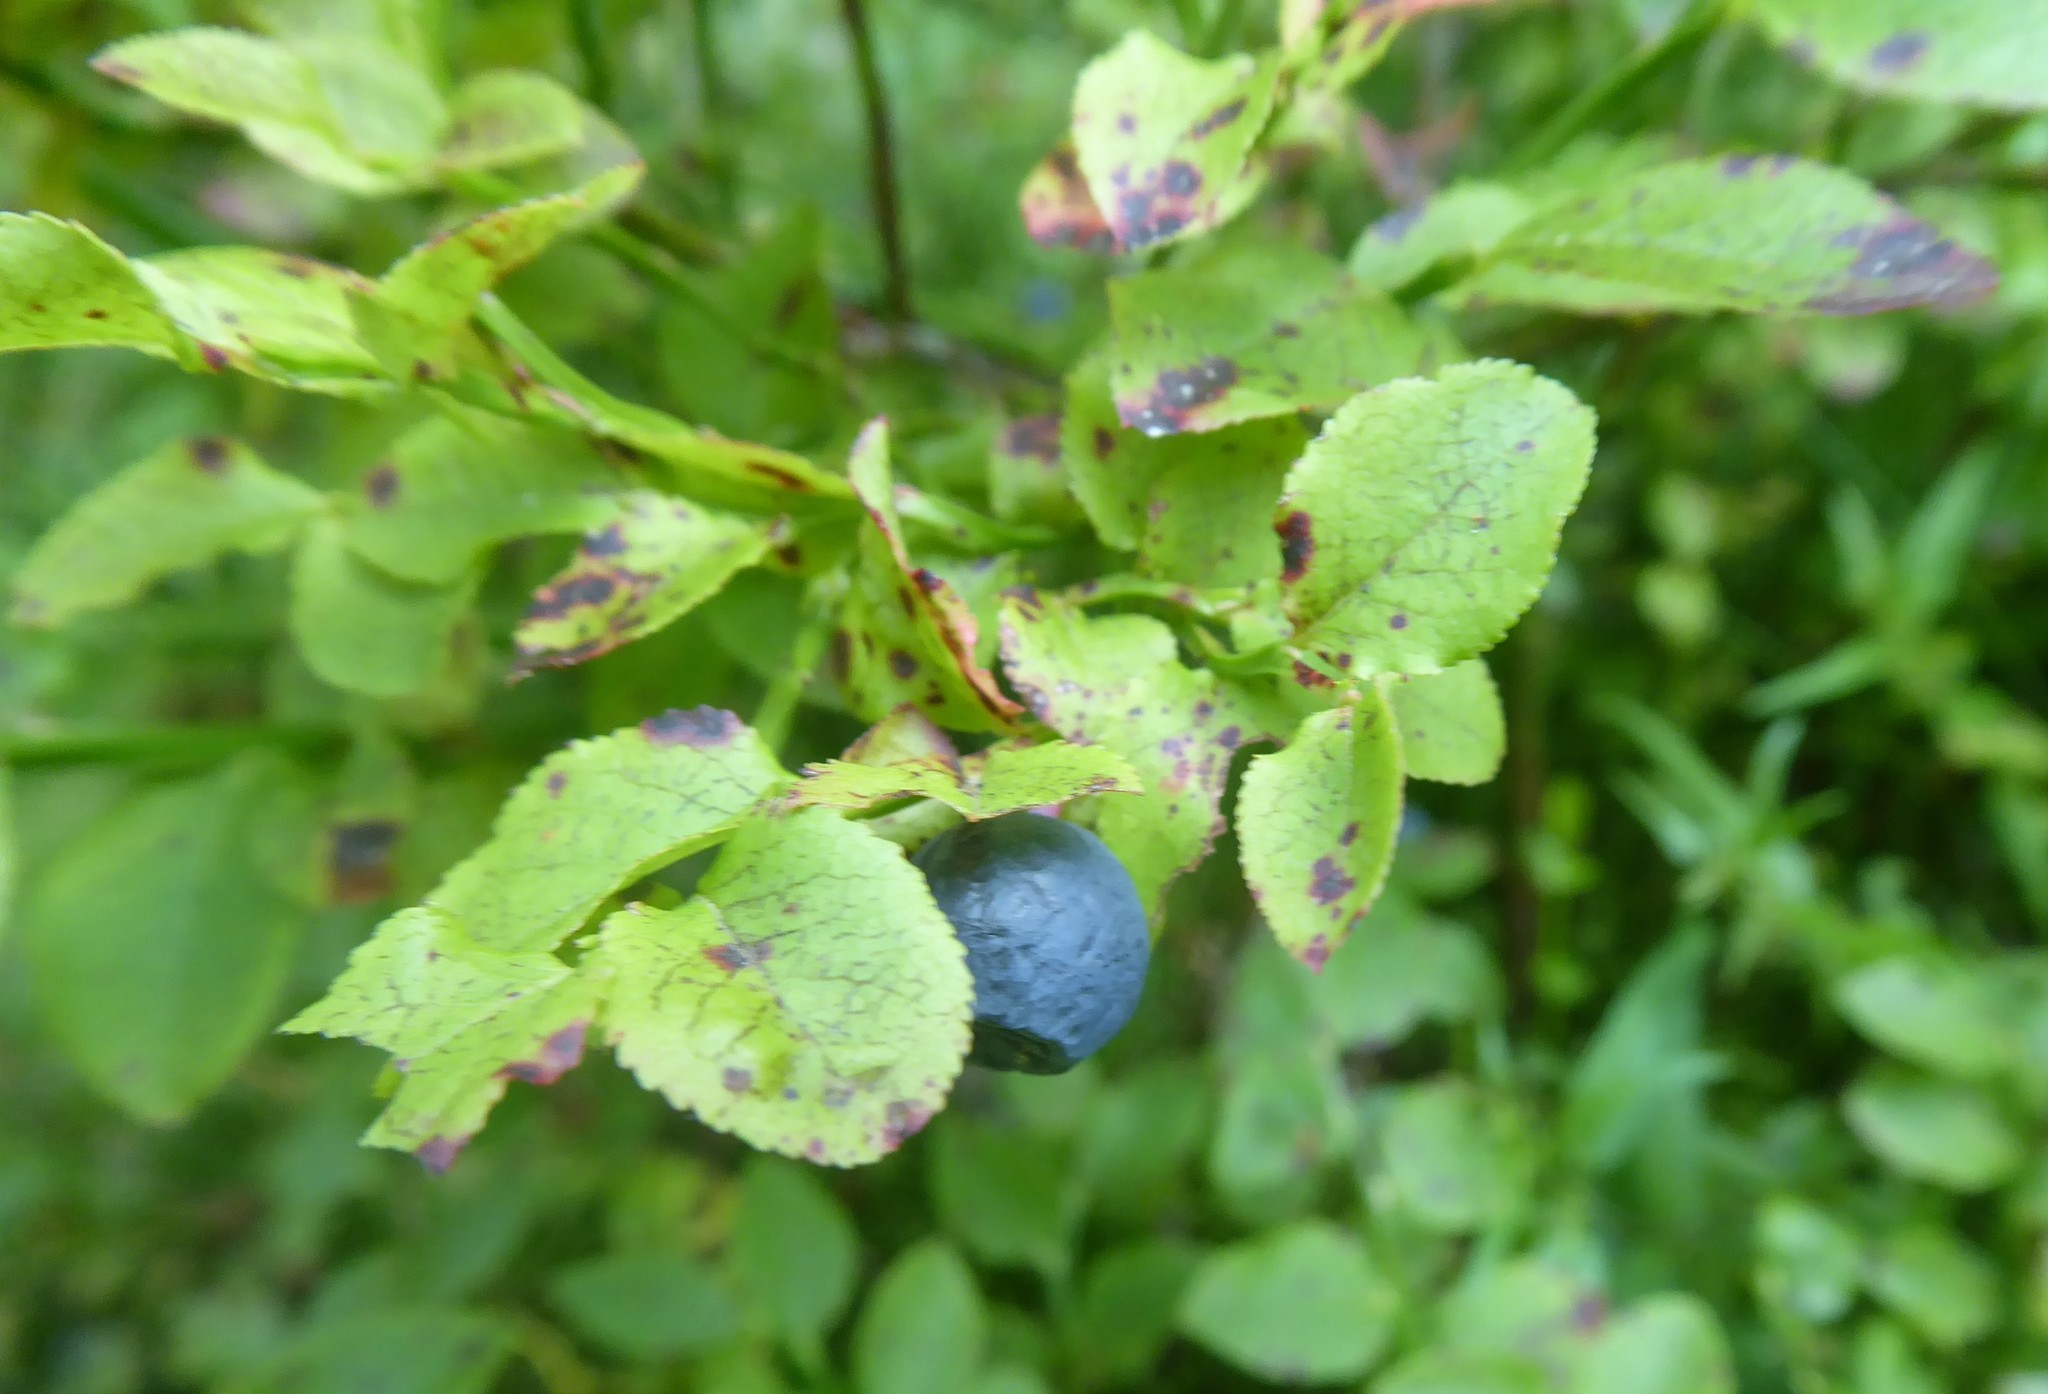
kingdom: Plantae
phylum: Tracheophyta
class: Magnoliopsida
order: Ericales
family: Ericaceae
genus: Vaccinium
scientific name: Vaccinium myrtillus
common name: Bilberry
